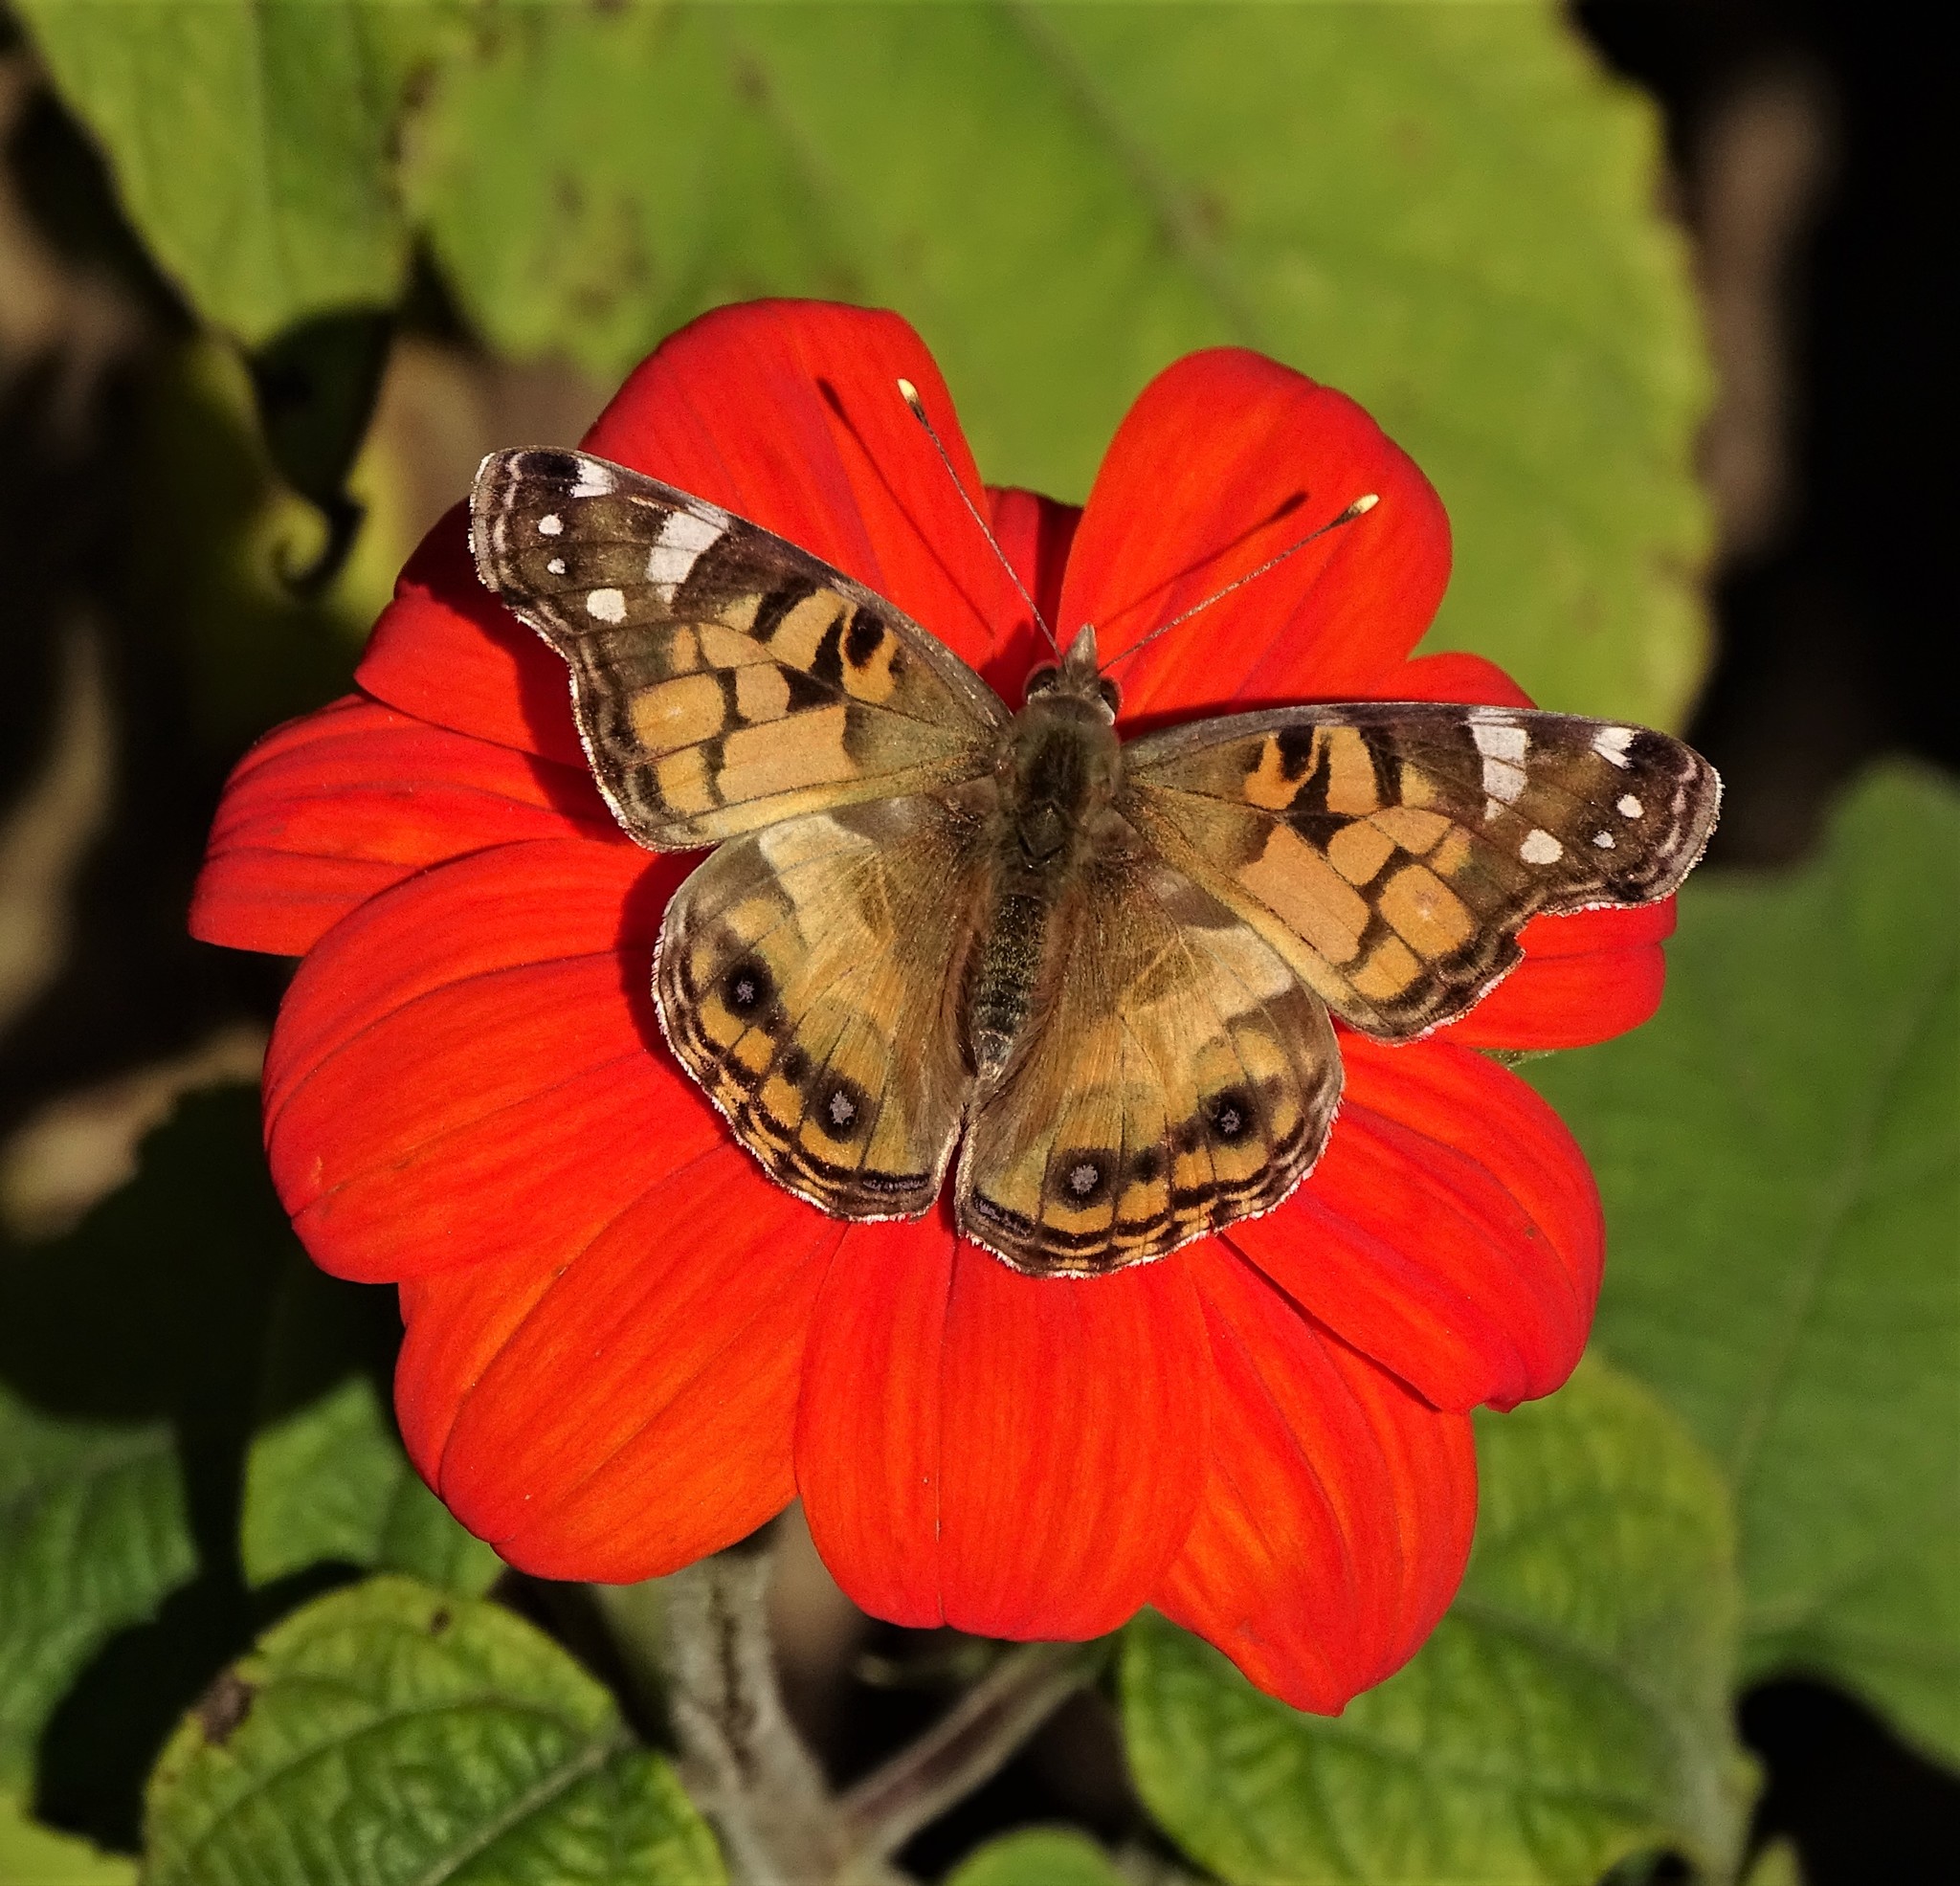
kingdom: Animalia
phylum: Arthropoda
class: Insecta
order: Lepidoptera
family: Nymphalidae
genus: Vanessa
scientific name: Vanessa virginiensis
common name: American lady
